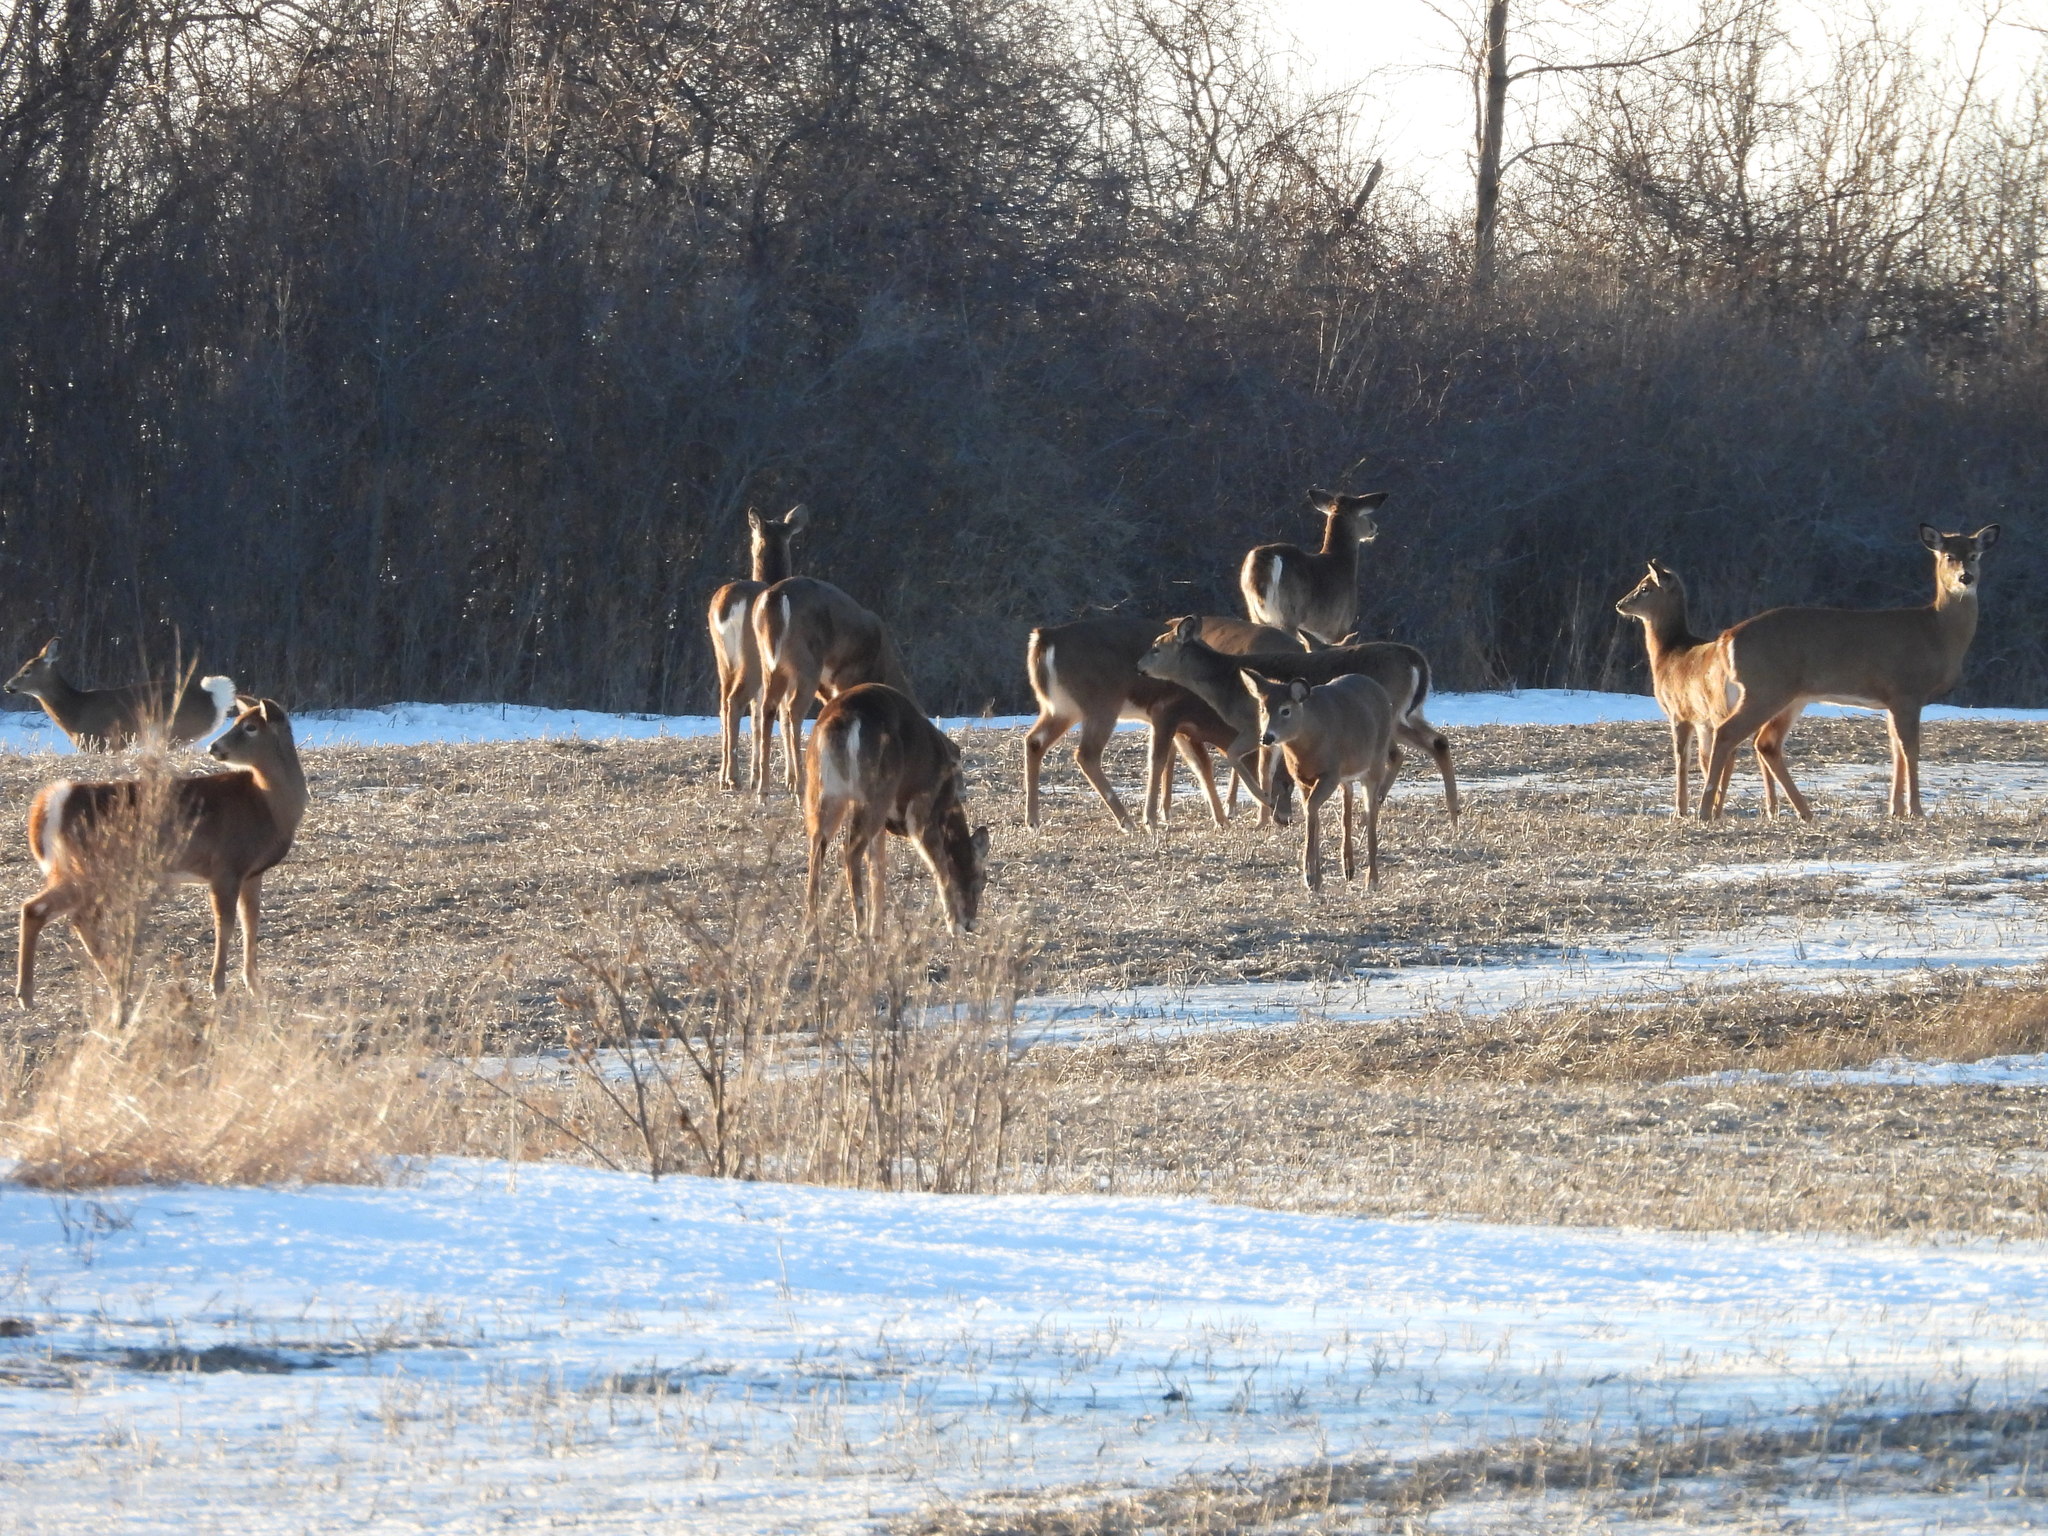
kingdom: Animalia
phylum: Chordata
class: Mammalia
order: Artiodactyla
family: Cervidae
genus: Odocoileus
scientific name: Odocoileus virginianus
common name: White-tailed deer
